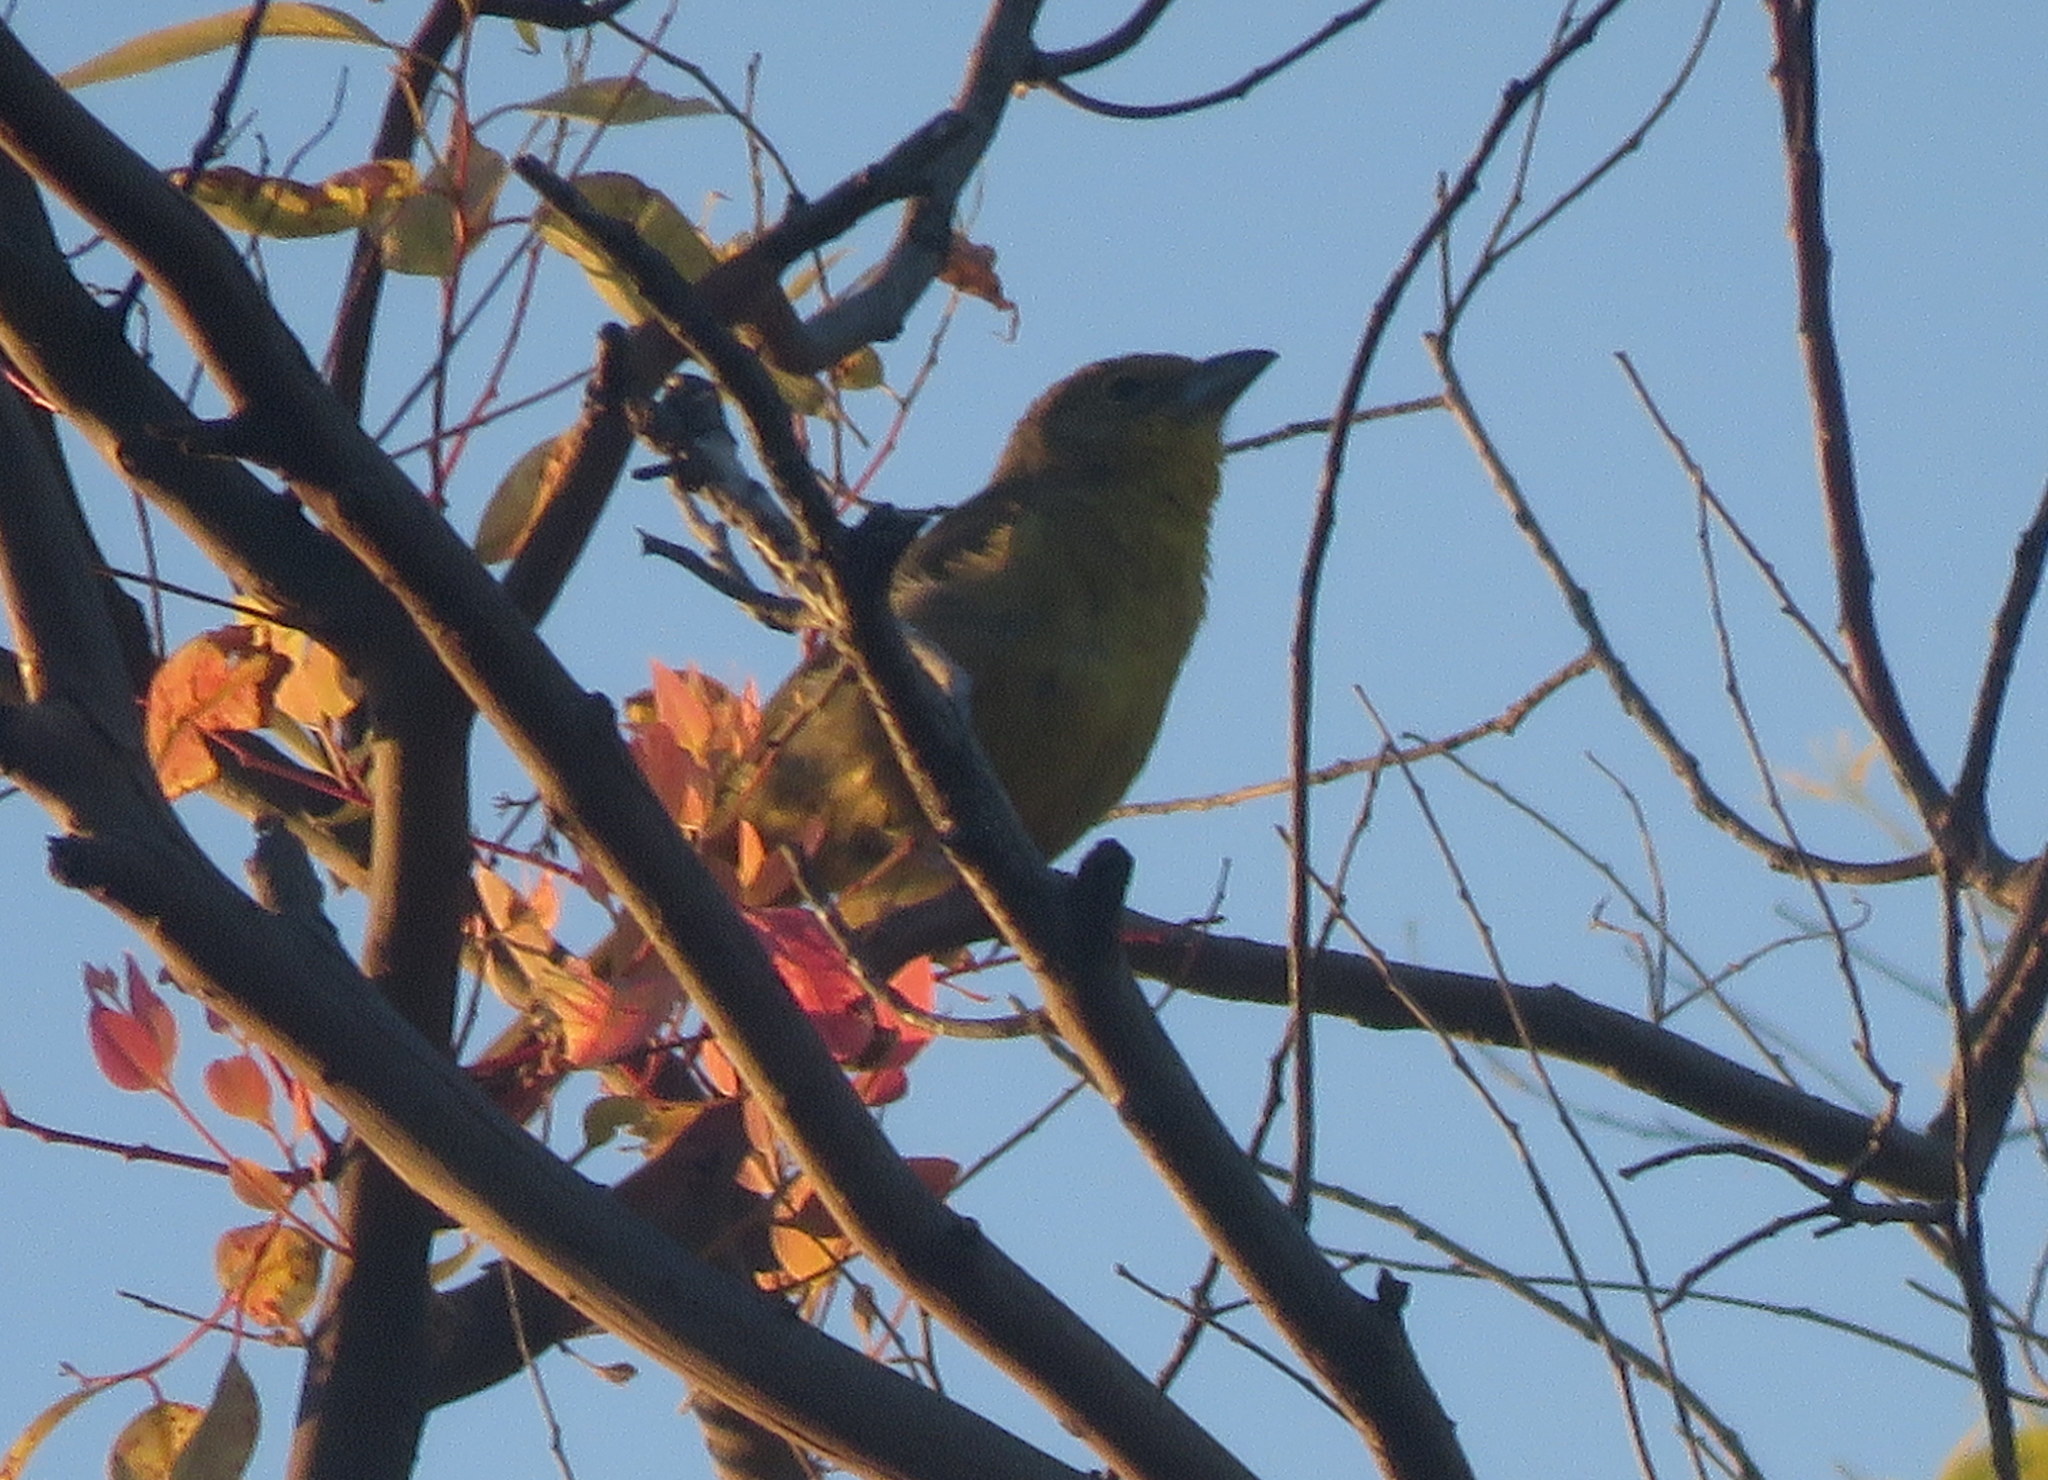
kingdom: Animalia
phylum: Chordata
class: Aves
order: Passeriformes
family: Cardinalidae
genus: Piranga
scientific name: Piranga flava
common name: Red tanager
